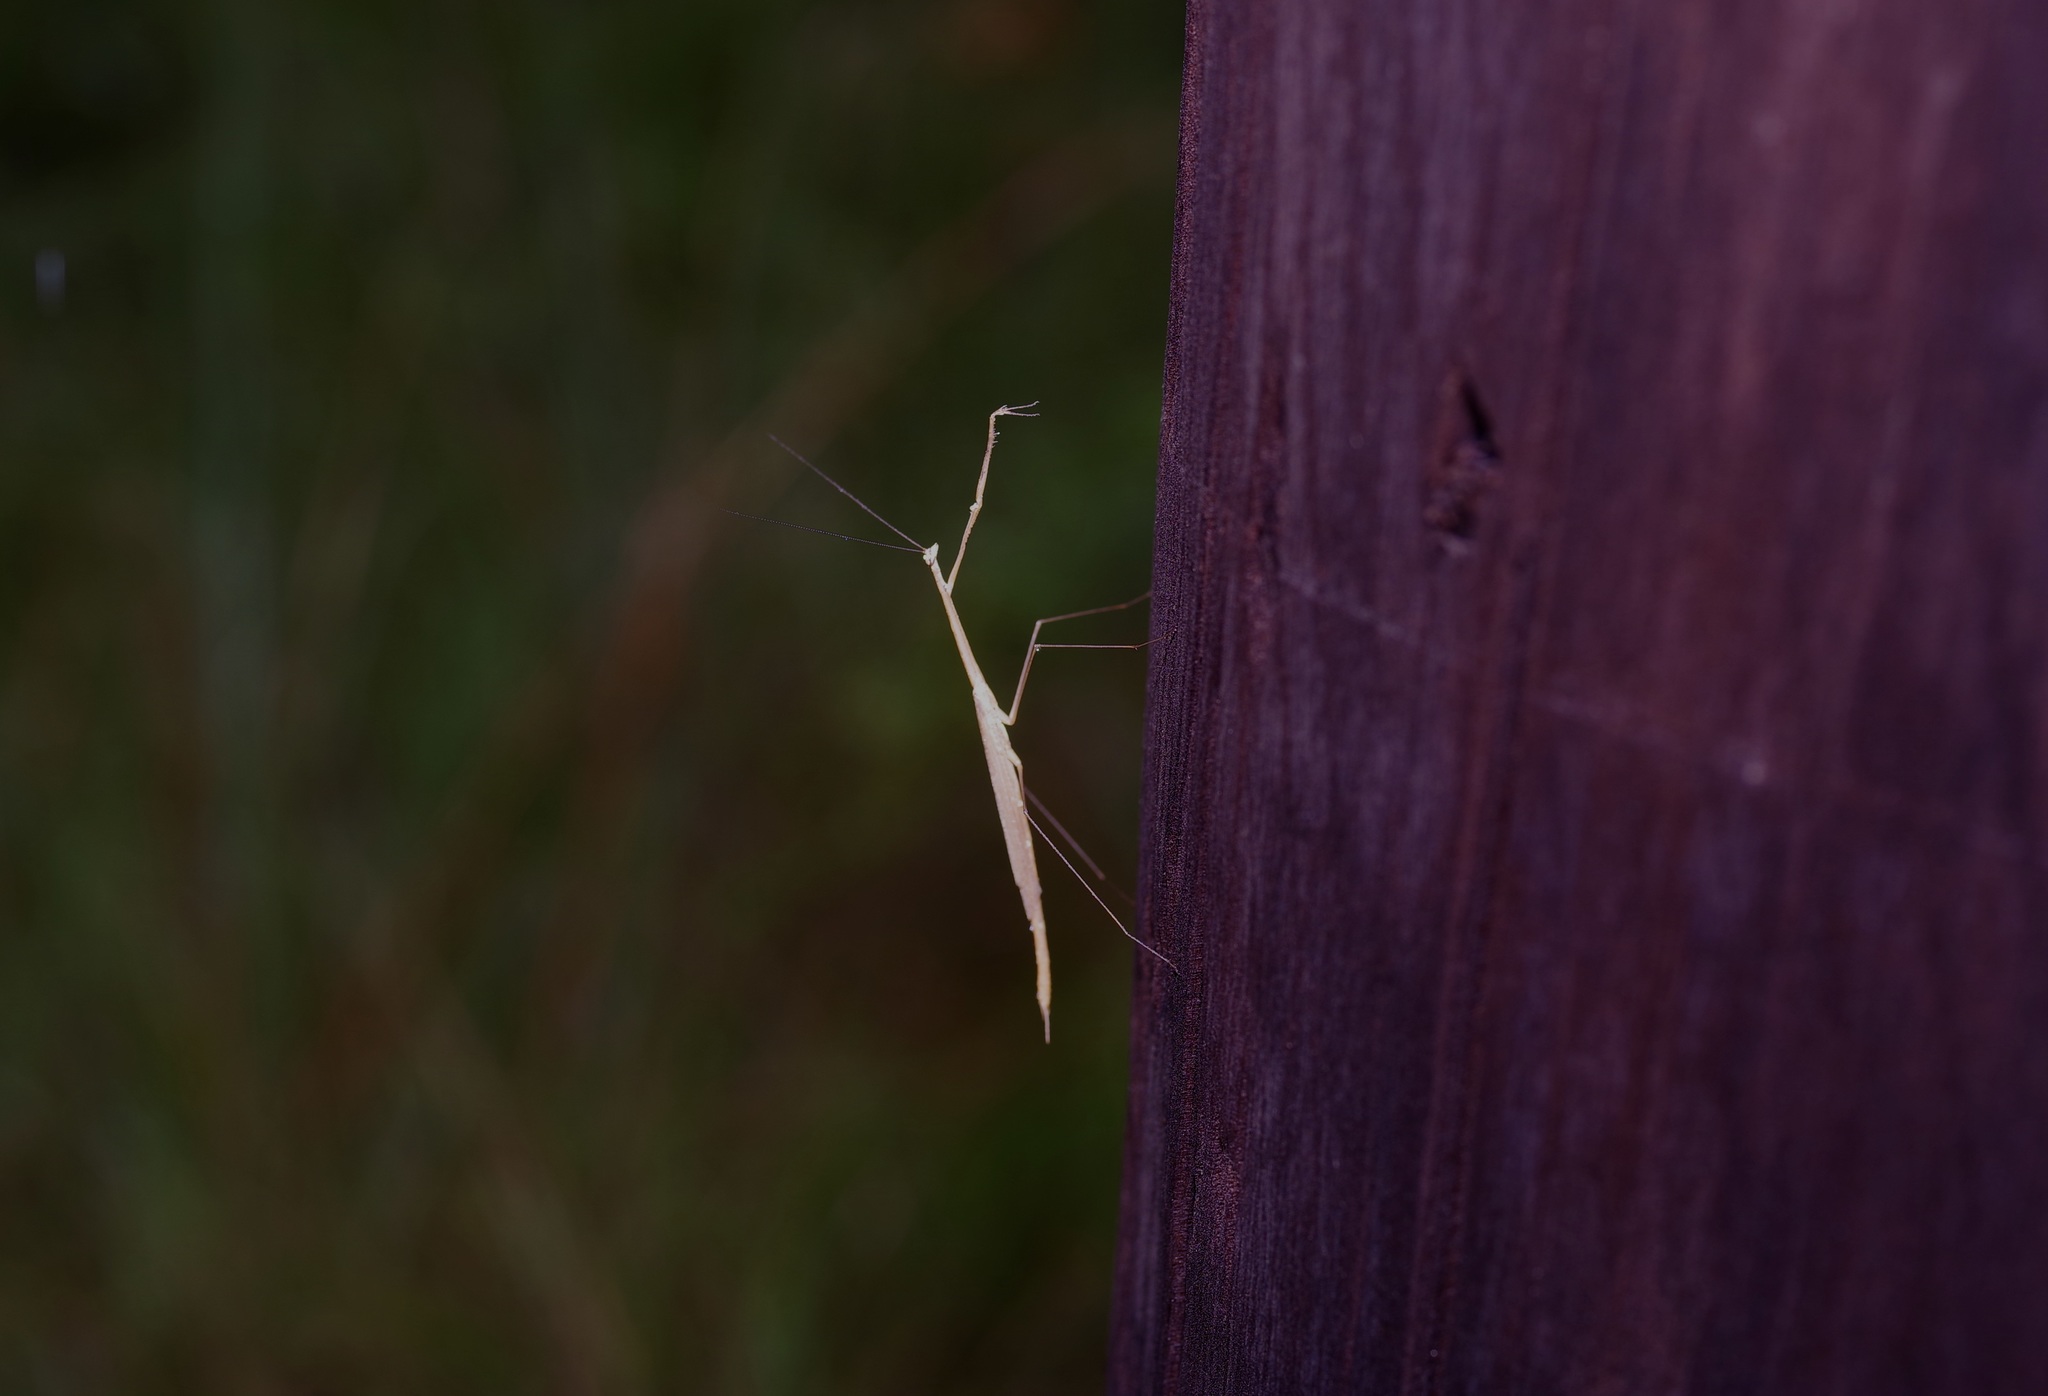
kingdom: Animalia
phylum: Arthropoda
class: Insecta
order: Mantodea
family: Thespidae
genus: Thesprotia
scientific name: Thesprotia graminis
